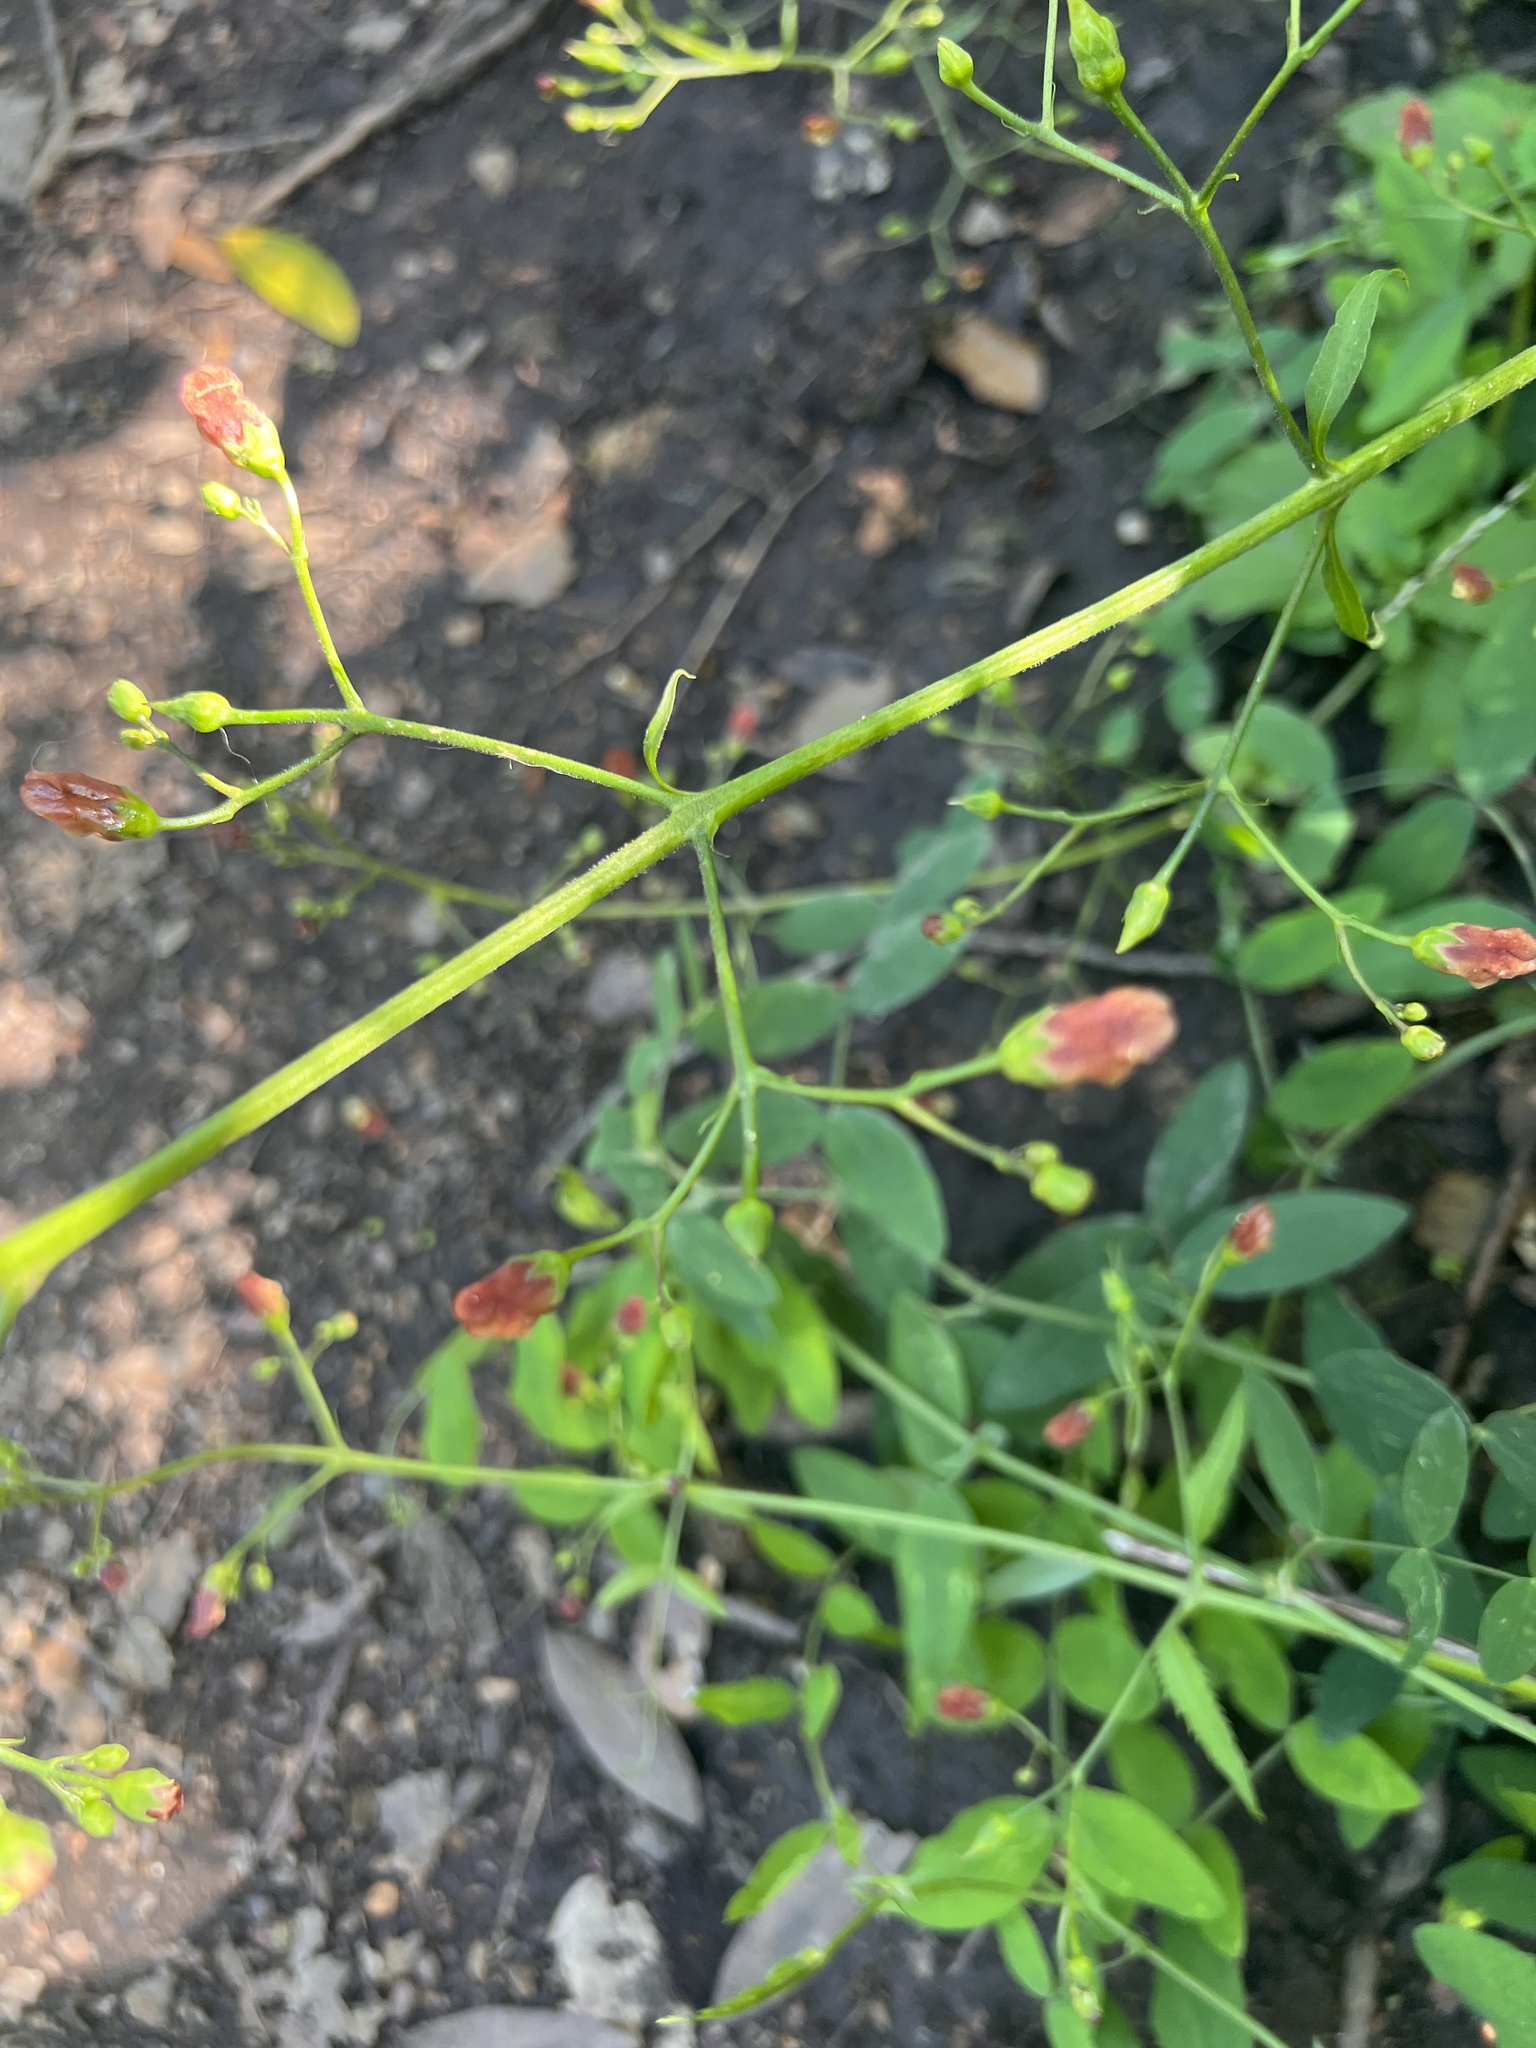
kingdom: Plantae
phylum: Tracheophyta
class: Magnoliopsida
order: Lamiales
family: Scrophulariaceae
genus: Scrophularia
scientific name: Scrophularia californica
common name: California figwort
